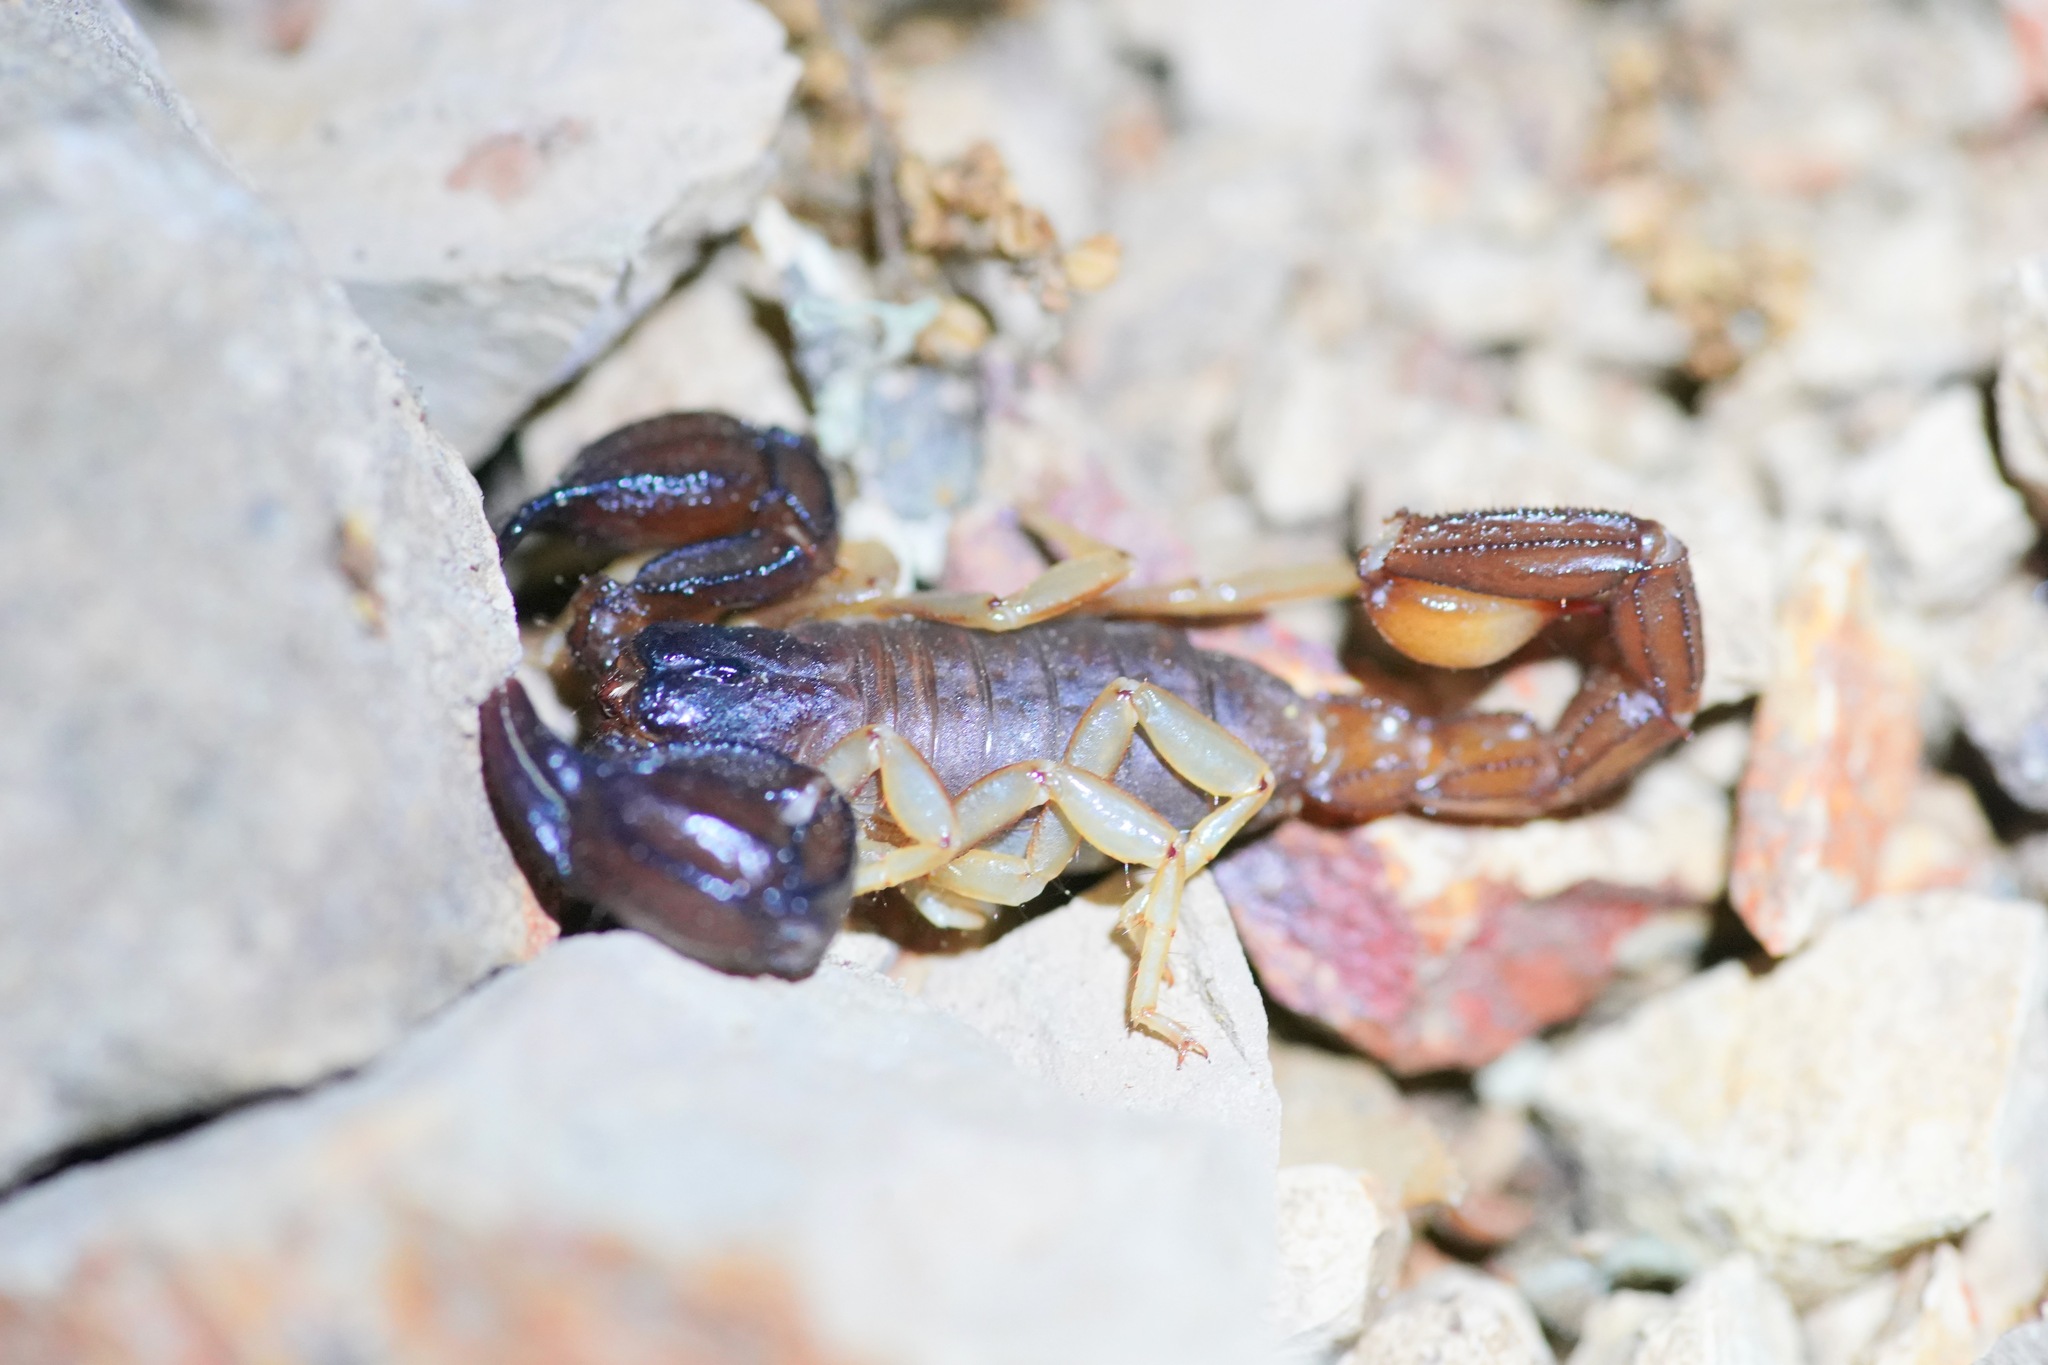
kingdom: Animalia
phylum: Arthropoda
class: Arachnida
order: Scorpiones
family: Chactidae
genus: Uroctonus
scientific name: Uroctonus mordax
